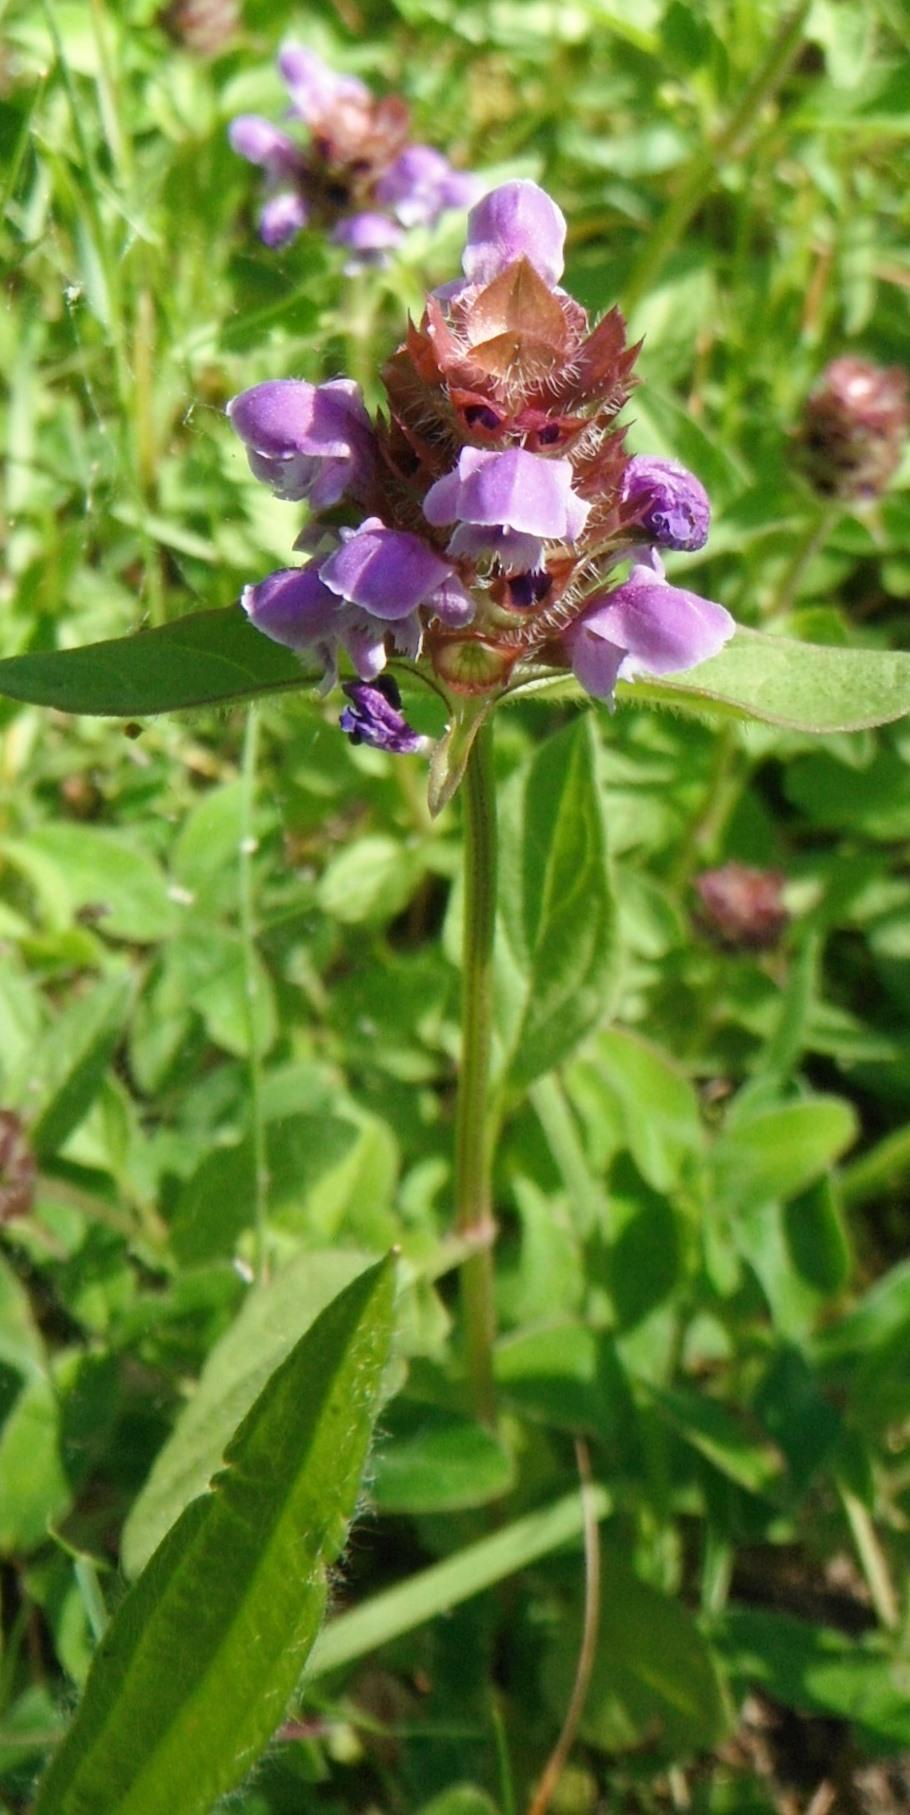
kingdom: Plantae
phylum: Tracheophyta
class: Magnoliopsida
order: Lamiales
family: Lamiaceae
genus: Prunella
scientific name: Prunella vulgaris
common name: Heal-all
